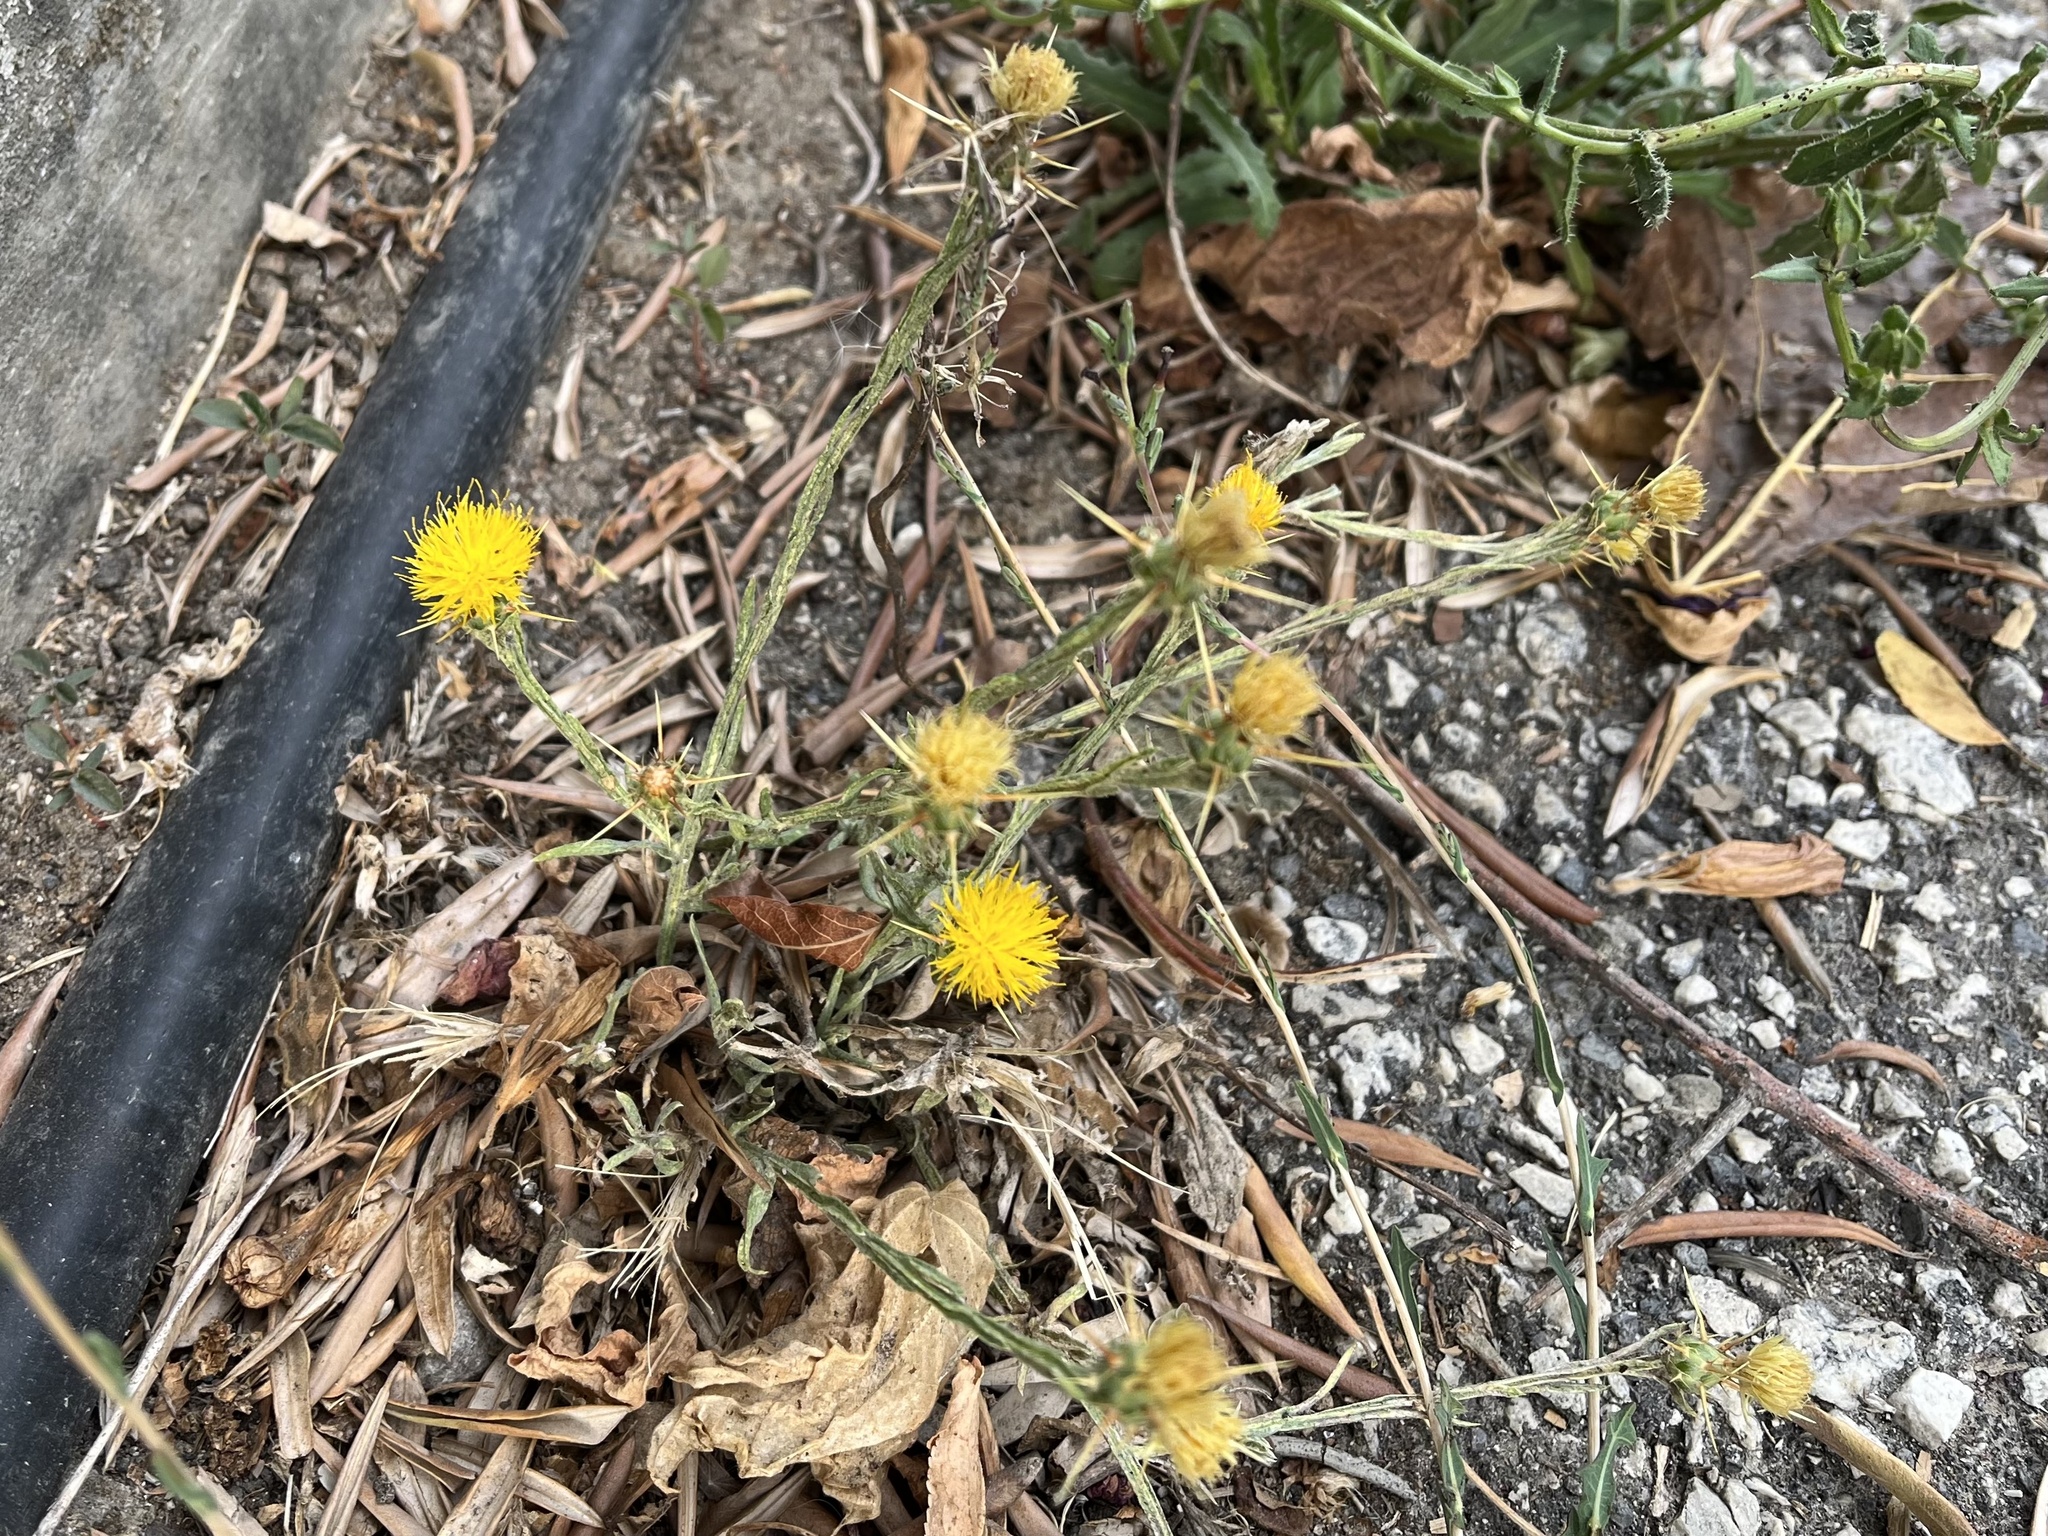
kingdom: Plantae
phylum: Tracheophyta
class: Magnoliopsida
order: Asterales
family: Asteraceae
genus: Centaurea
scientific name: Centaurea solstitialis
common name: Yellow star-thistle
